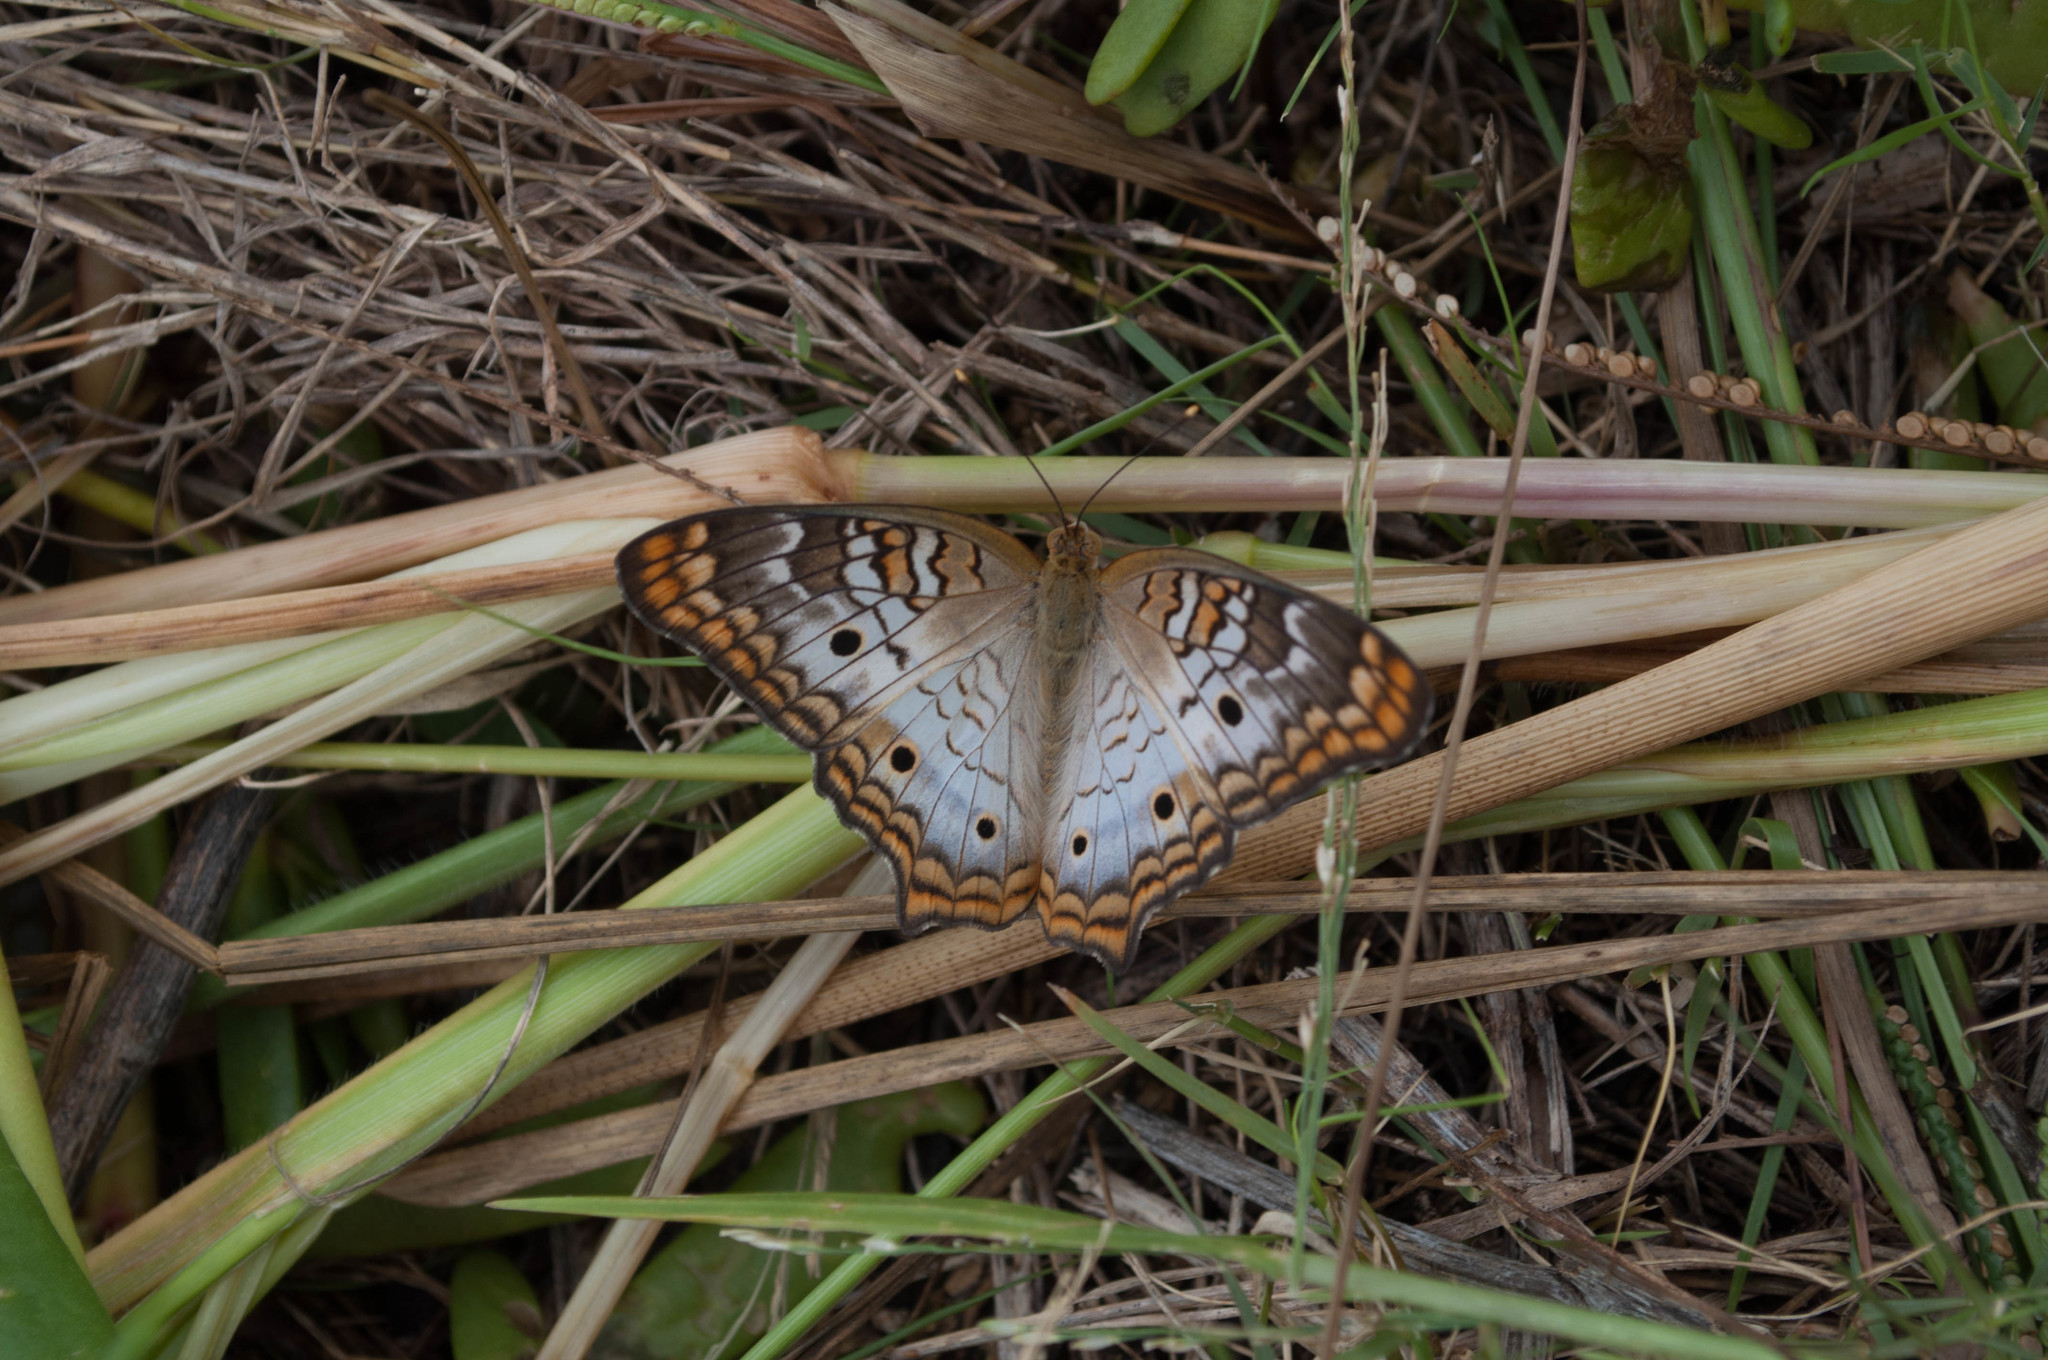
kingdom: Animalia
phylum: Arthropoda
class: Insecta
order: Lepidoptera
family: Nymphalidae
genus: Anartia
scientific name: Anartia jatrophae
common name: White peacock
